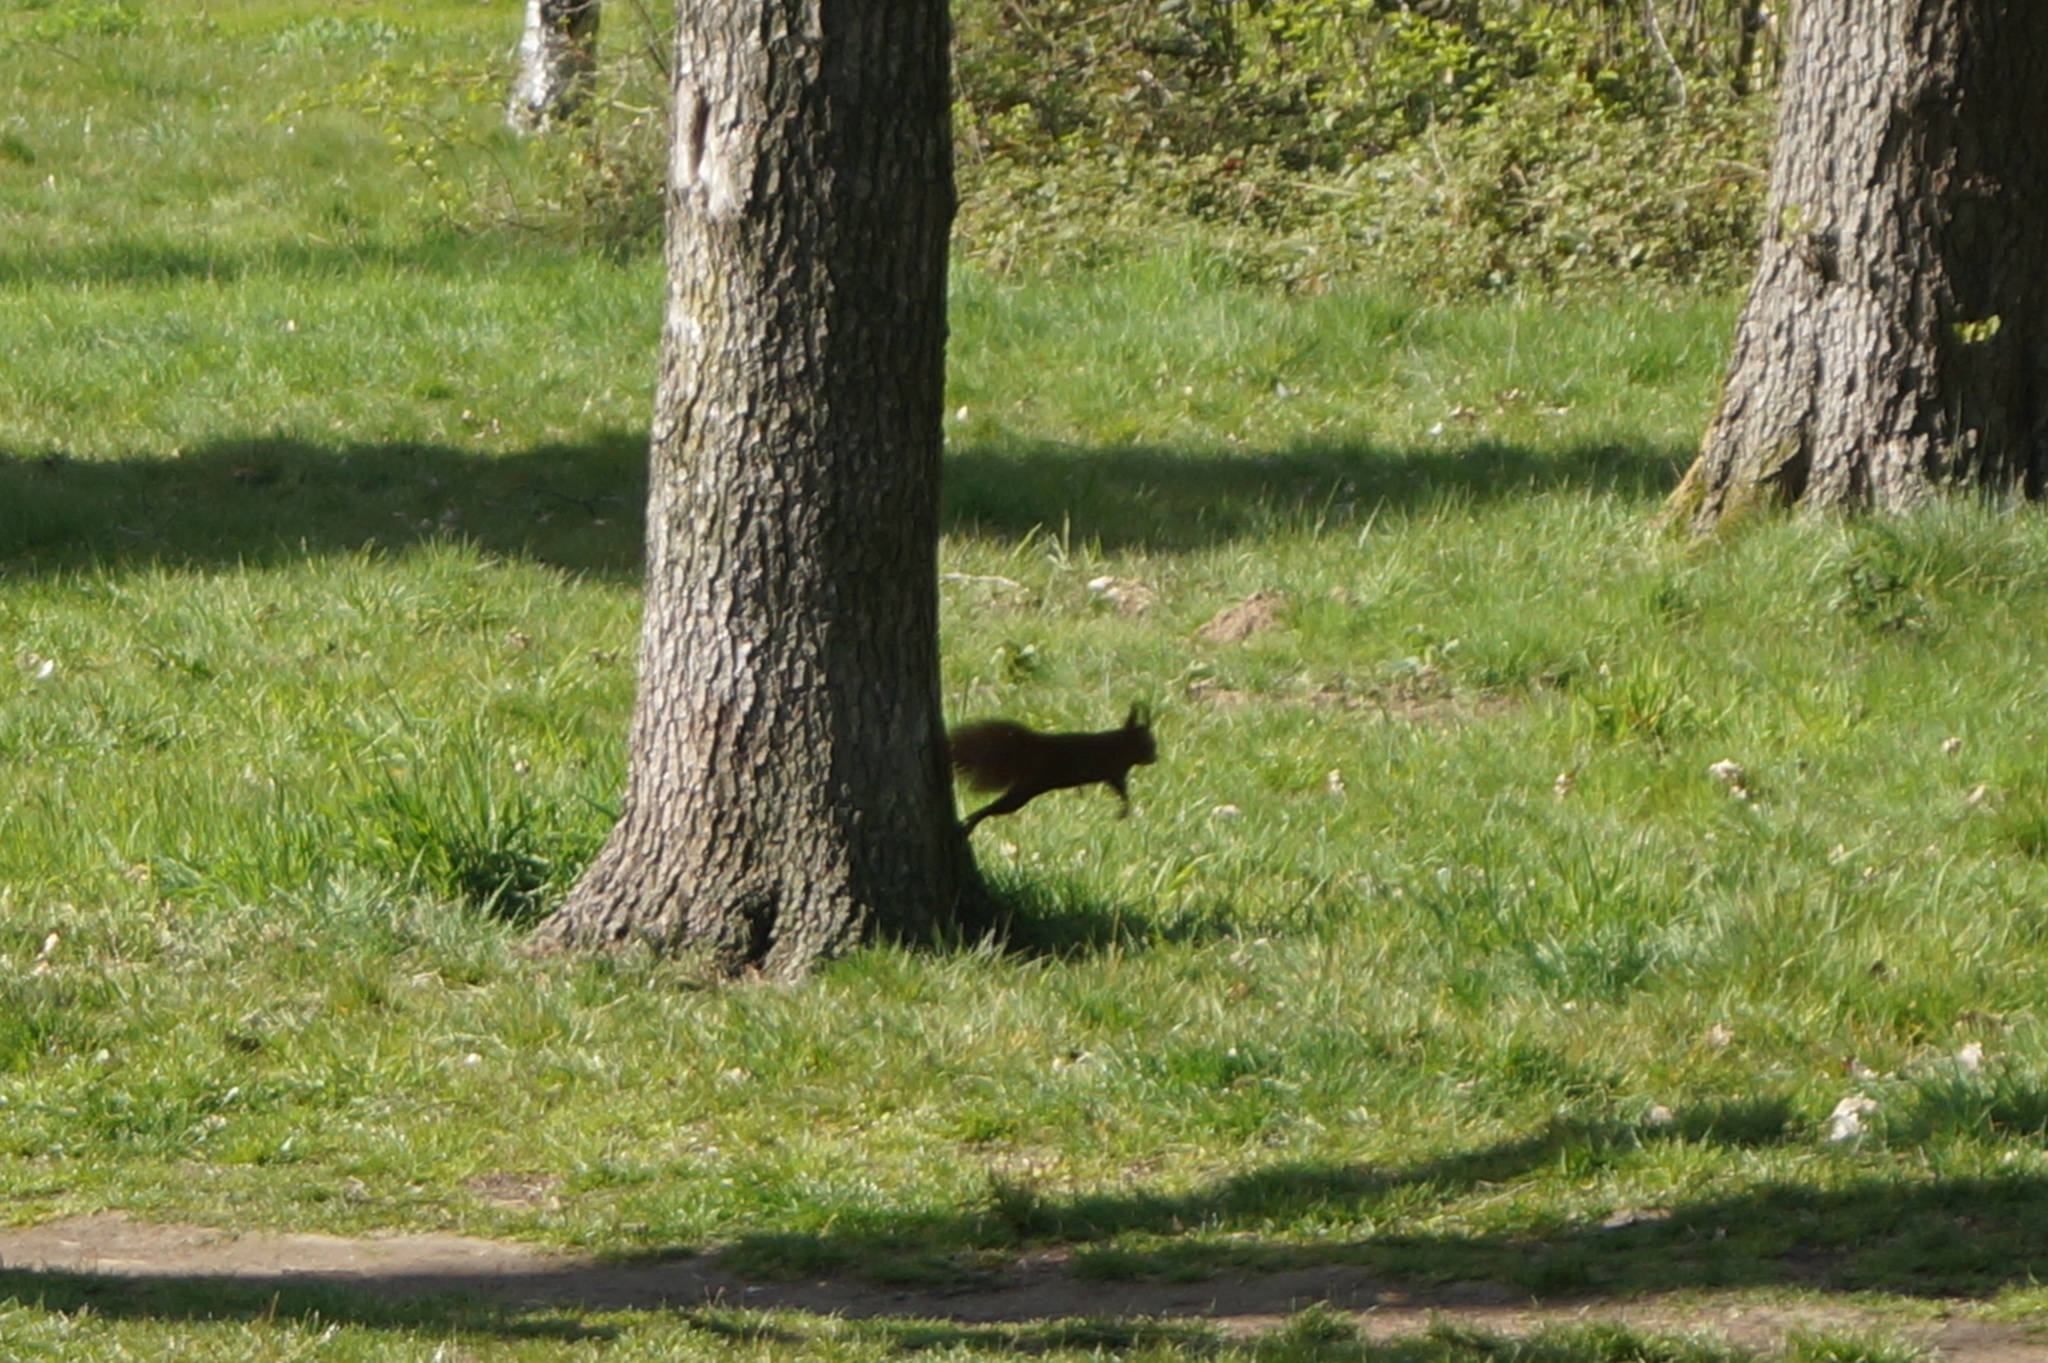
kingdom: Animalia
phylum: Chordata
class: Mammalia
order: Rodentia
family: Sciuridae
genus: Sciurus
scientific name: Sciurus vulgaris
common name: Eurasian red squirrel
